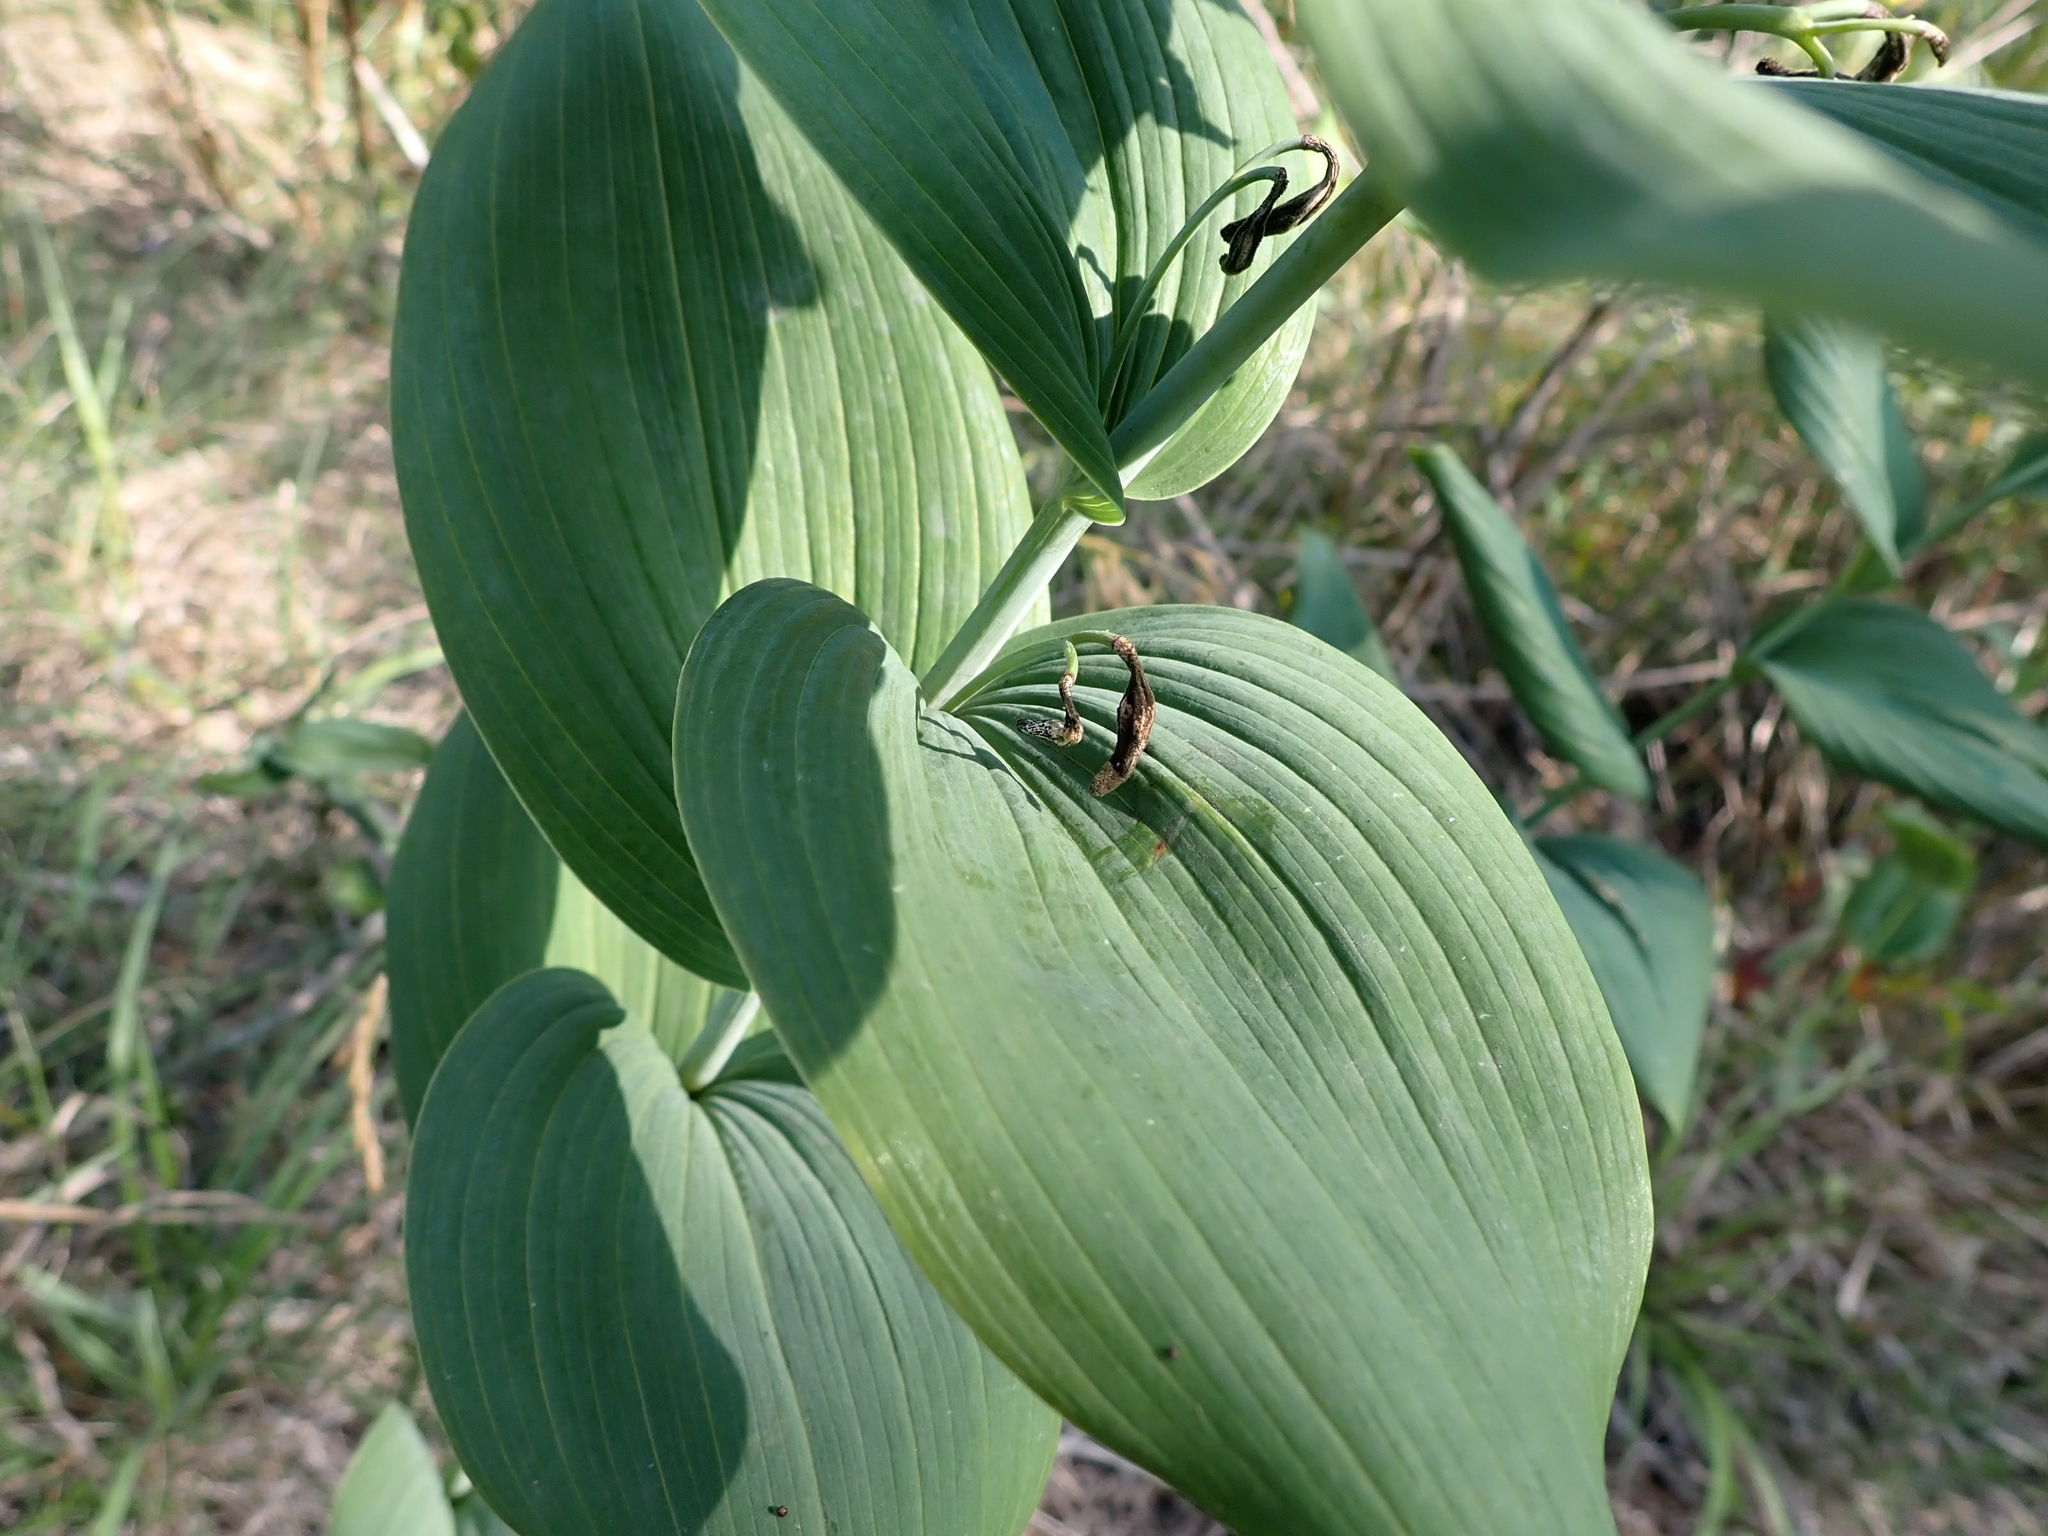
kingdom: Plantae
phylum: Tracheophyta
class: Liliopsida
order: Asparagales
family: Asparagaceae
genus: Polygonatum
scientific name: Polygonatum biflorum
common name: American solomon's-seal
